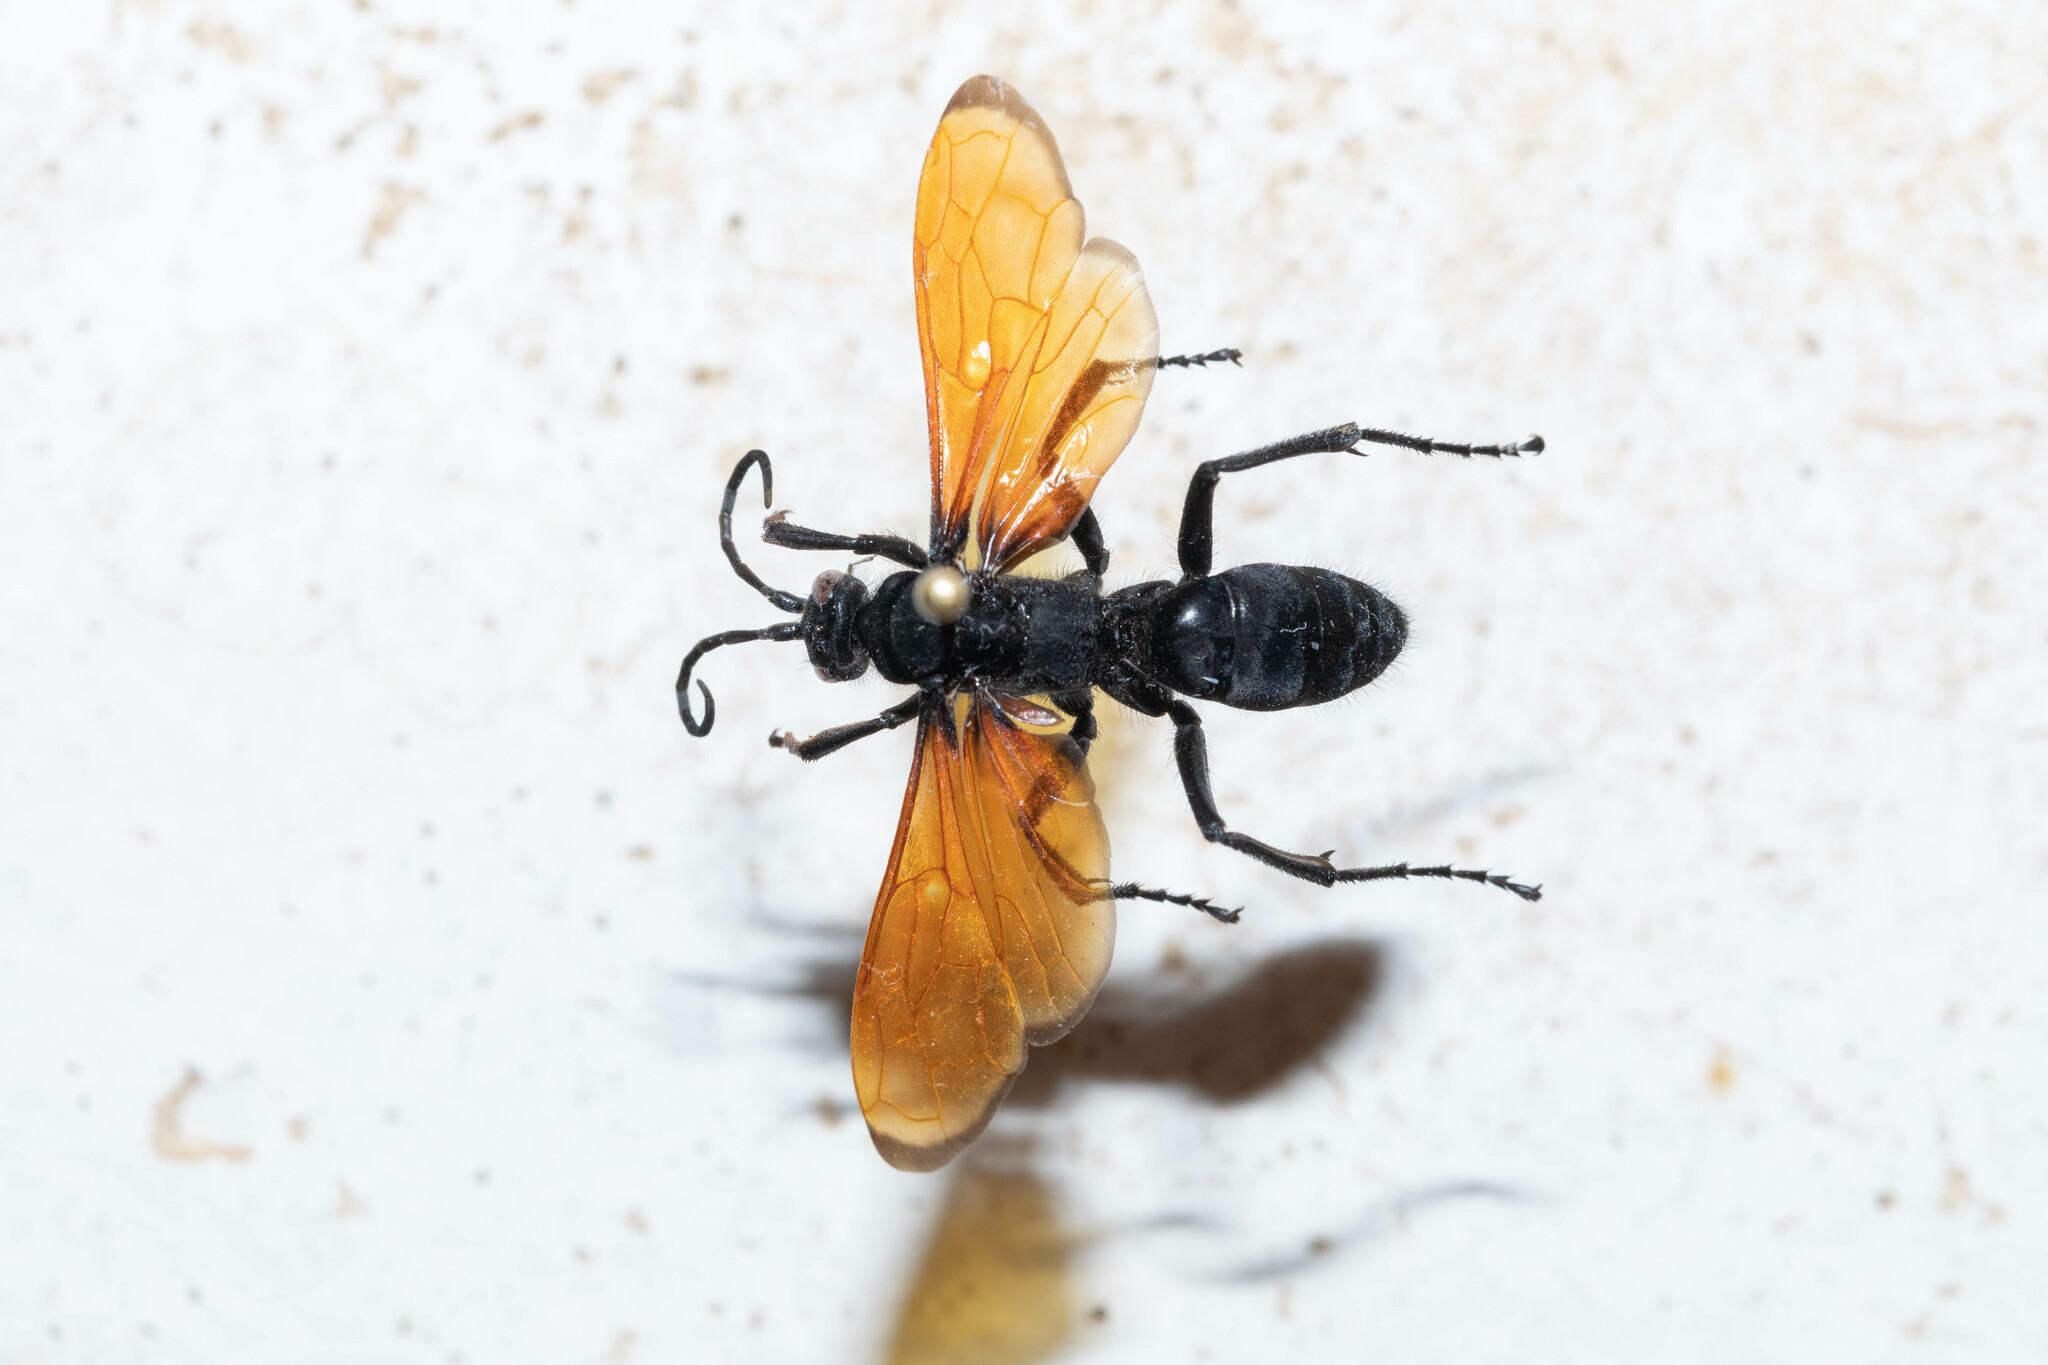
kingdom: Animalia
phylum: Arthropoda
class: Insecta
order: Hymenoptera
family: Pompilidae
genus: Chirodamus
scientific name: Chirodamus pyrrhomelas
